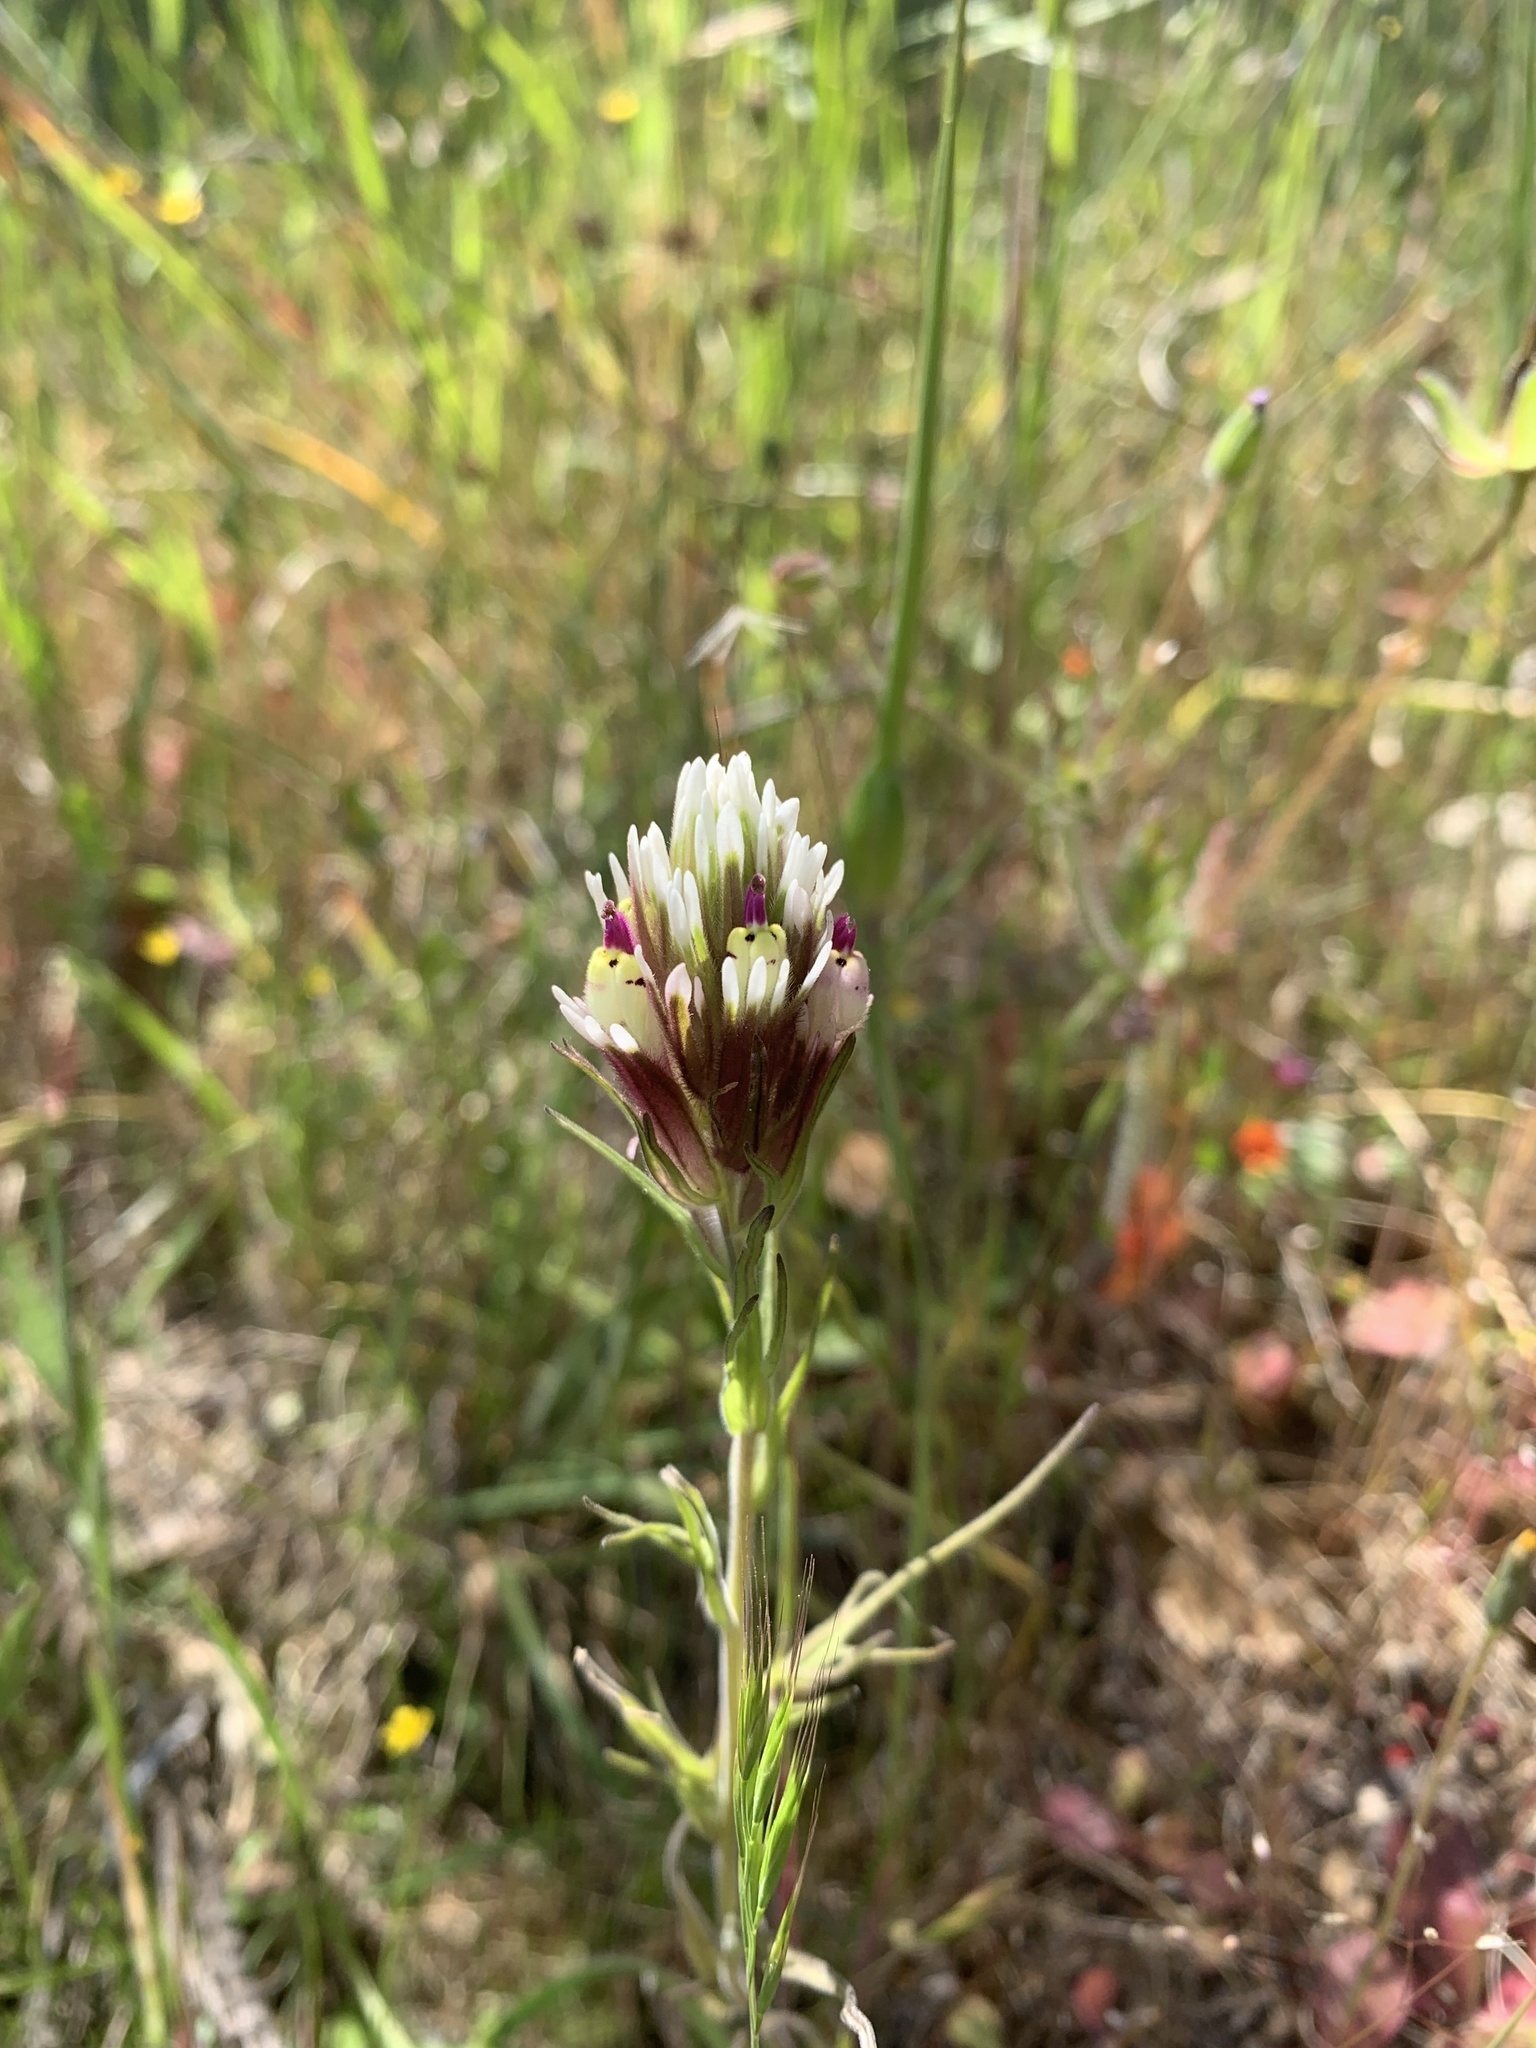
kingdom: Plantae
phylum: Tracheophyta
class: Magnoliopsida
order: Lamiales
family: Orobanchaceae
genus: Castilleja
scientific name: Castilleja densiflora
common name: Dense-flower indian paintbrush
